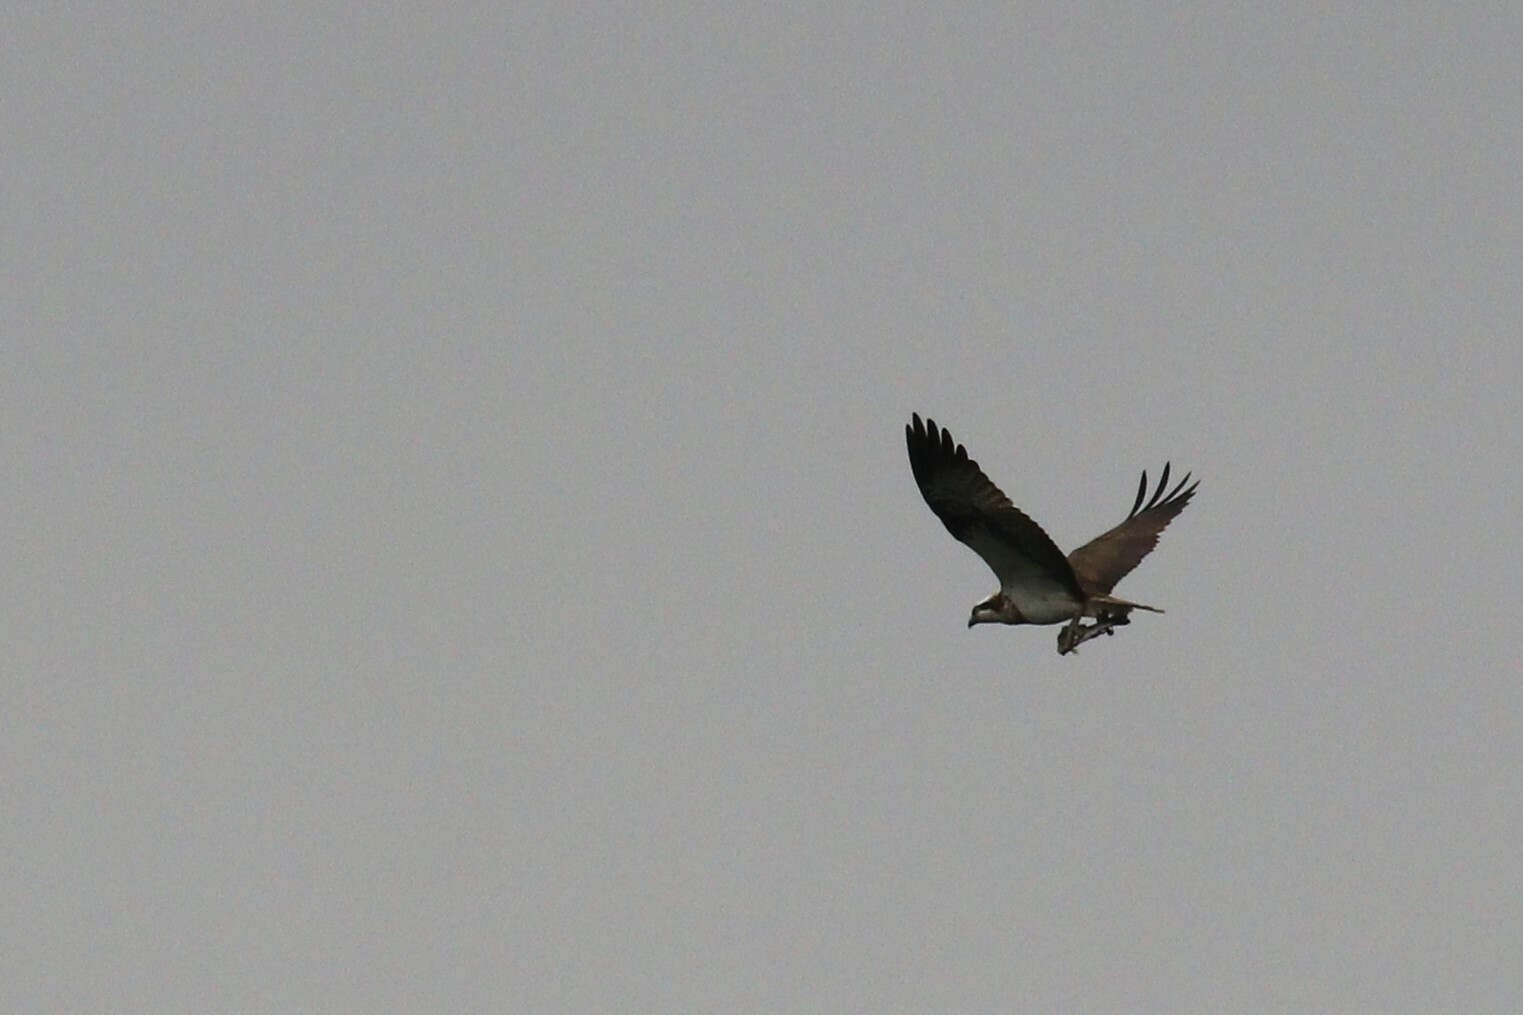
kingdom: Animalia
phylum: Chordata
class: Aves
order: Accipitriformes
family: Pandionidae
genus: Pandion
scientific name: Pandion haliaetus
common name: Osprey
